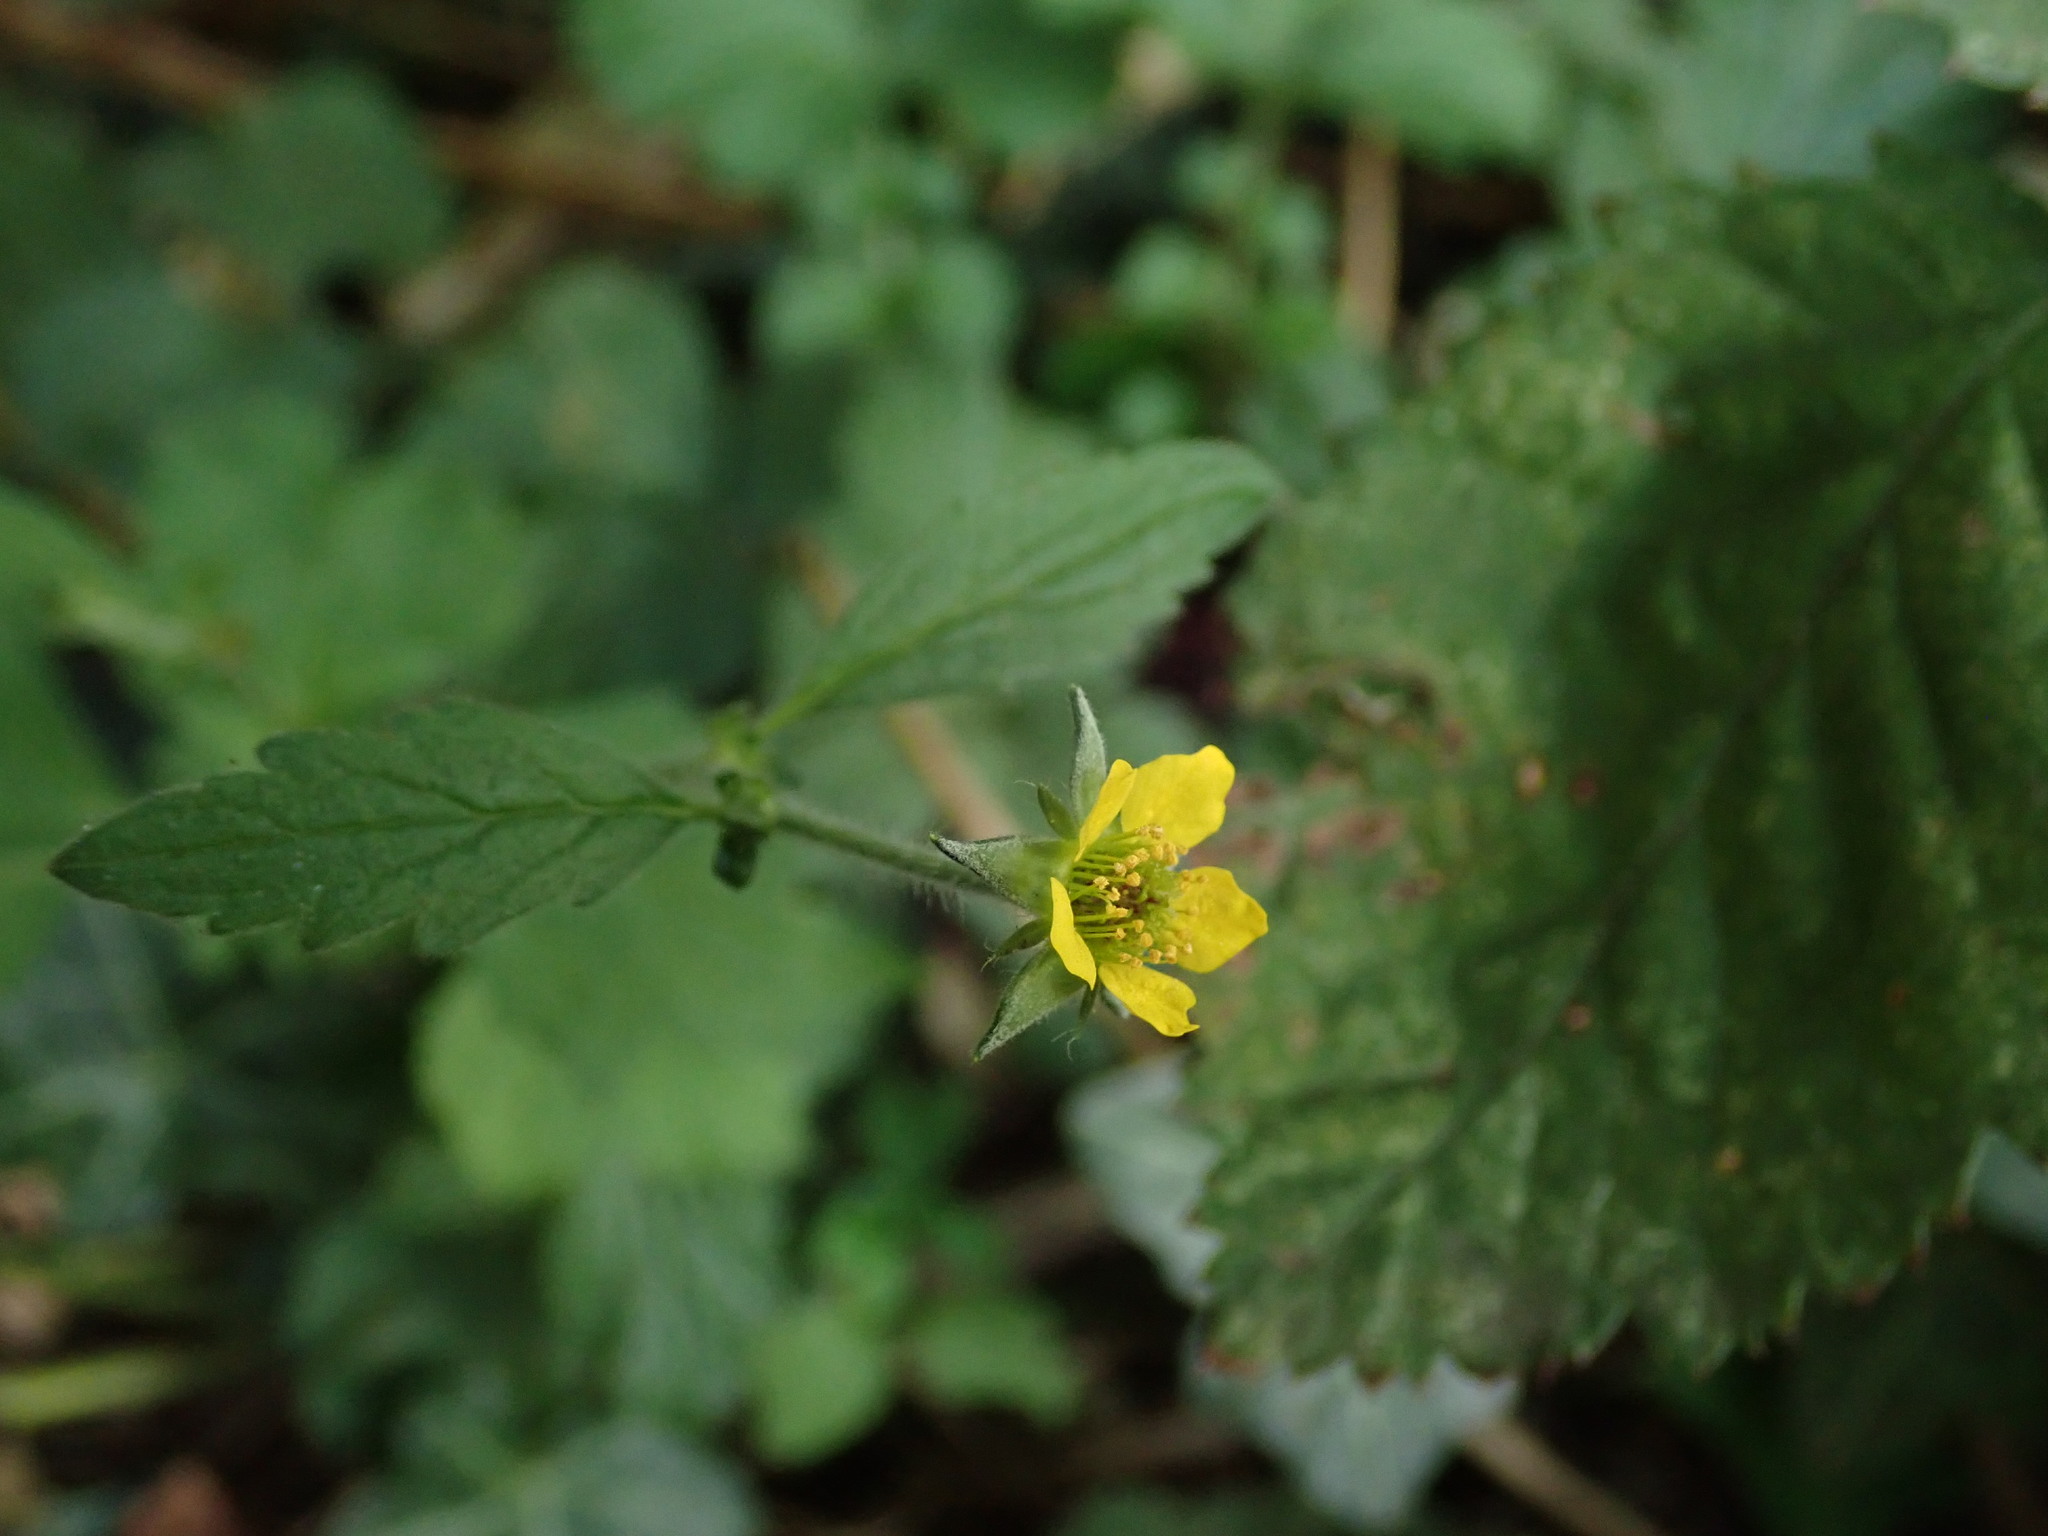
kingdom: Plantae
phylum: Tracheophyta
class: Magnoliopsida
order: Rosales
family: Rosaceae
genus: Geum
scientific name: Geum urbanum
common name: Wood avens
